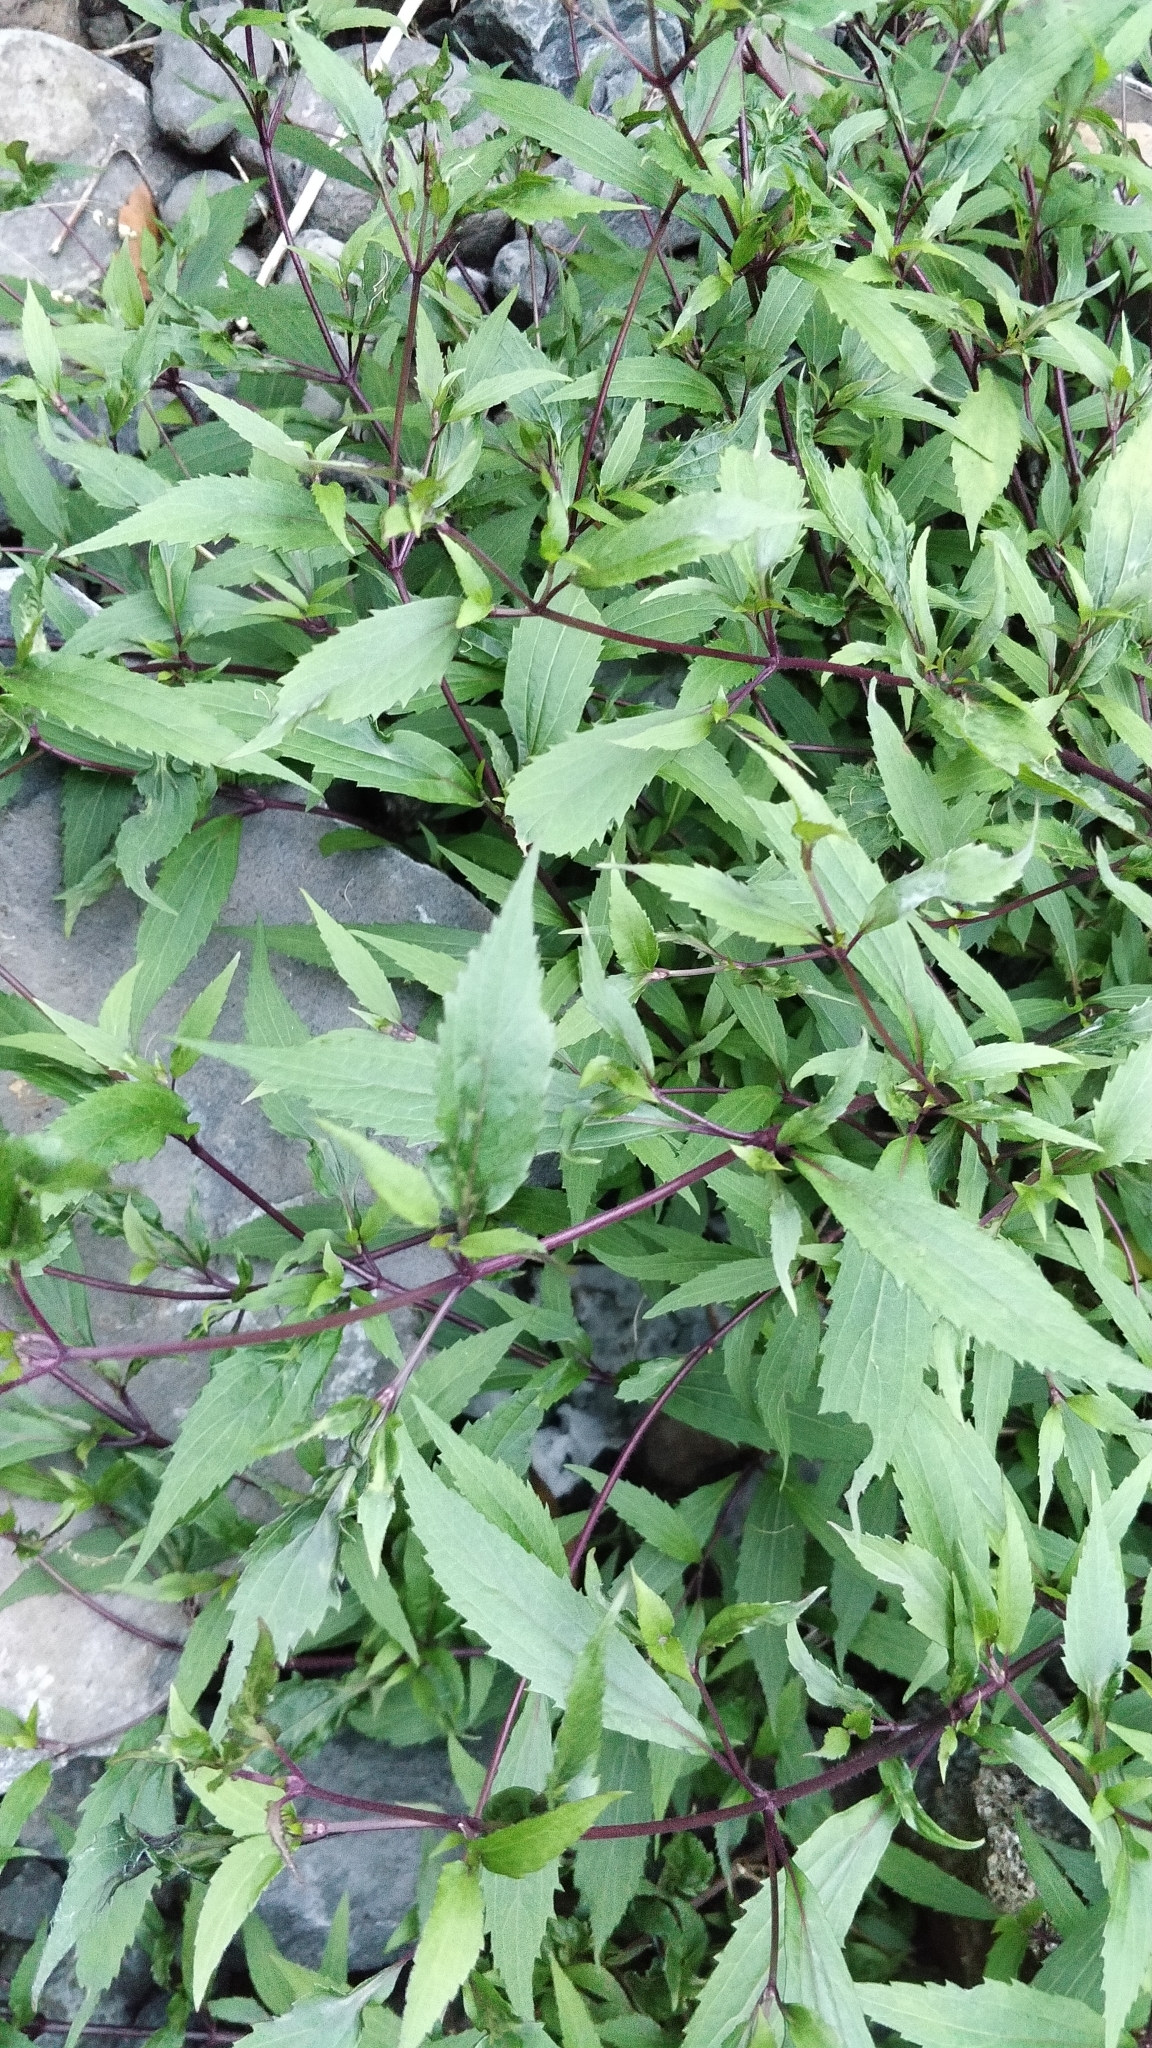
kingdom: Plantae
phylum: Tracheophyta
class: Magnoliopsida
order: Asterales
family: Asteraceae
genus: Ageratina
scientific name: Ageratina riparia
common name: Creeping croftonweed
